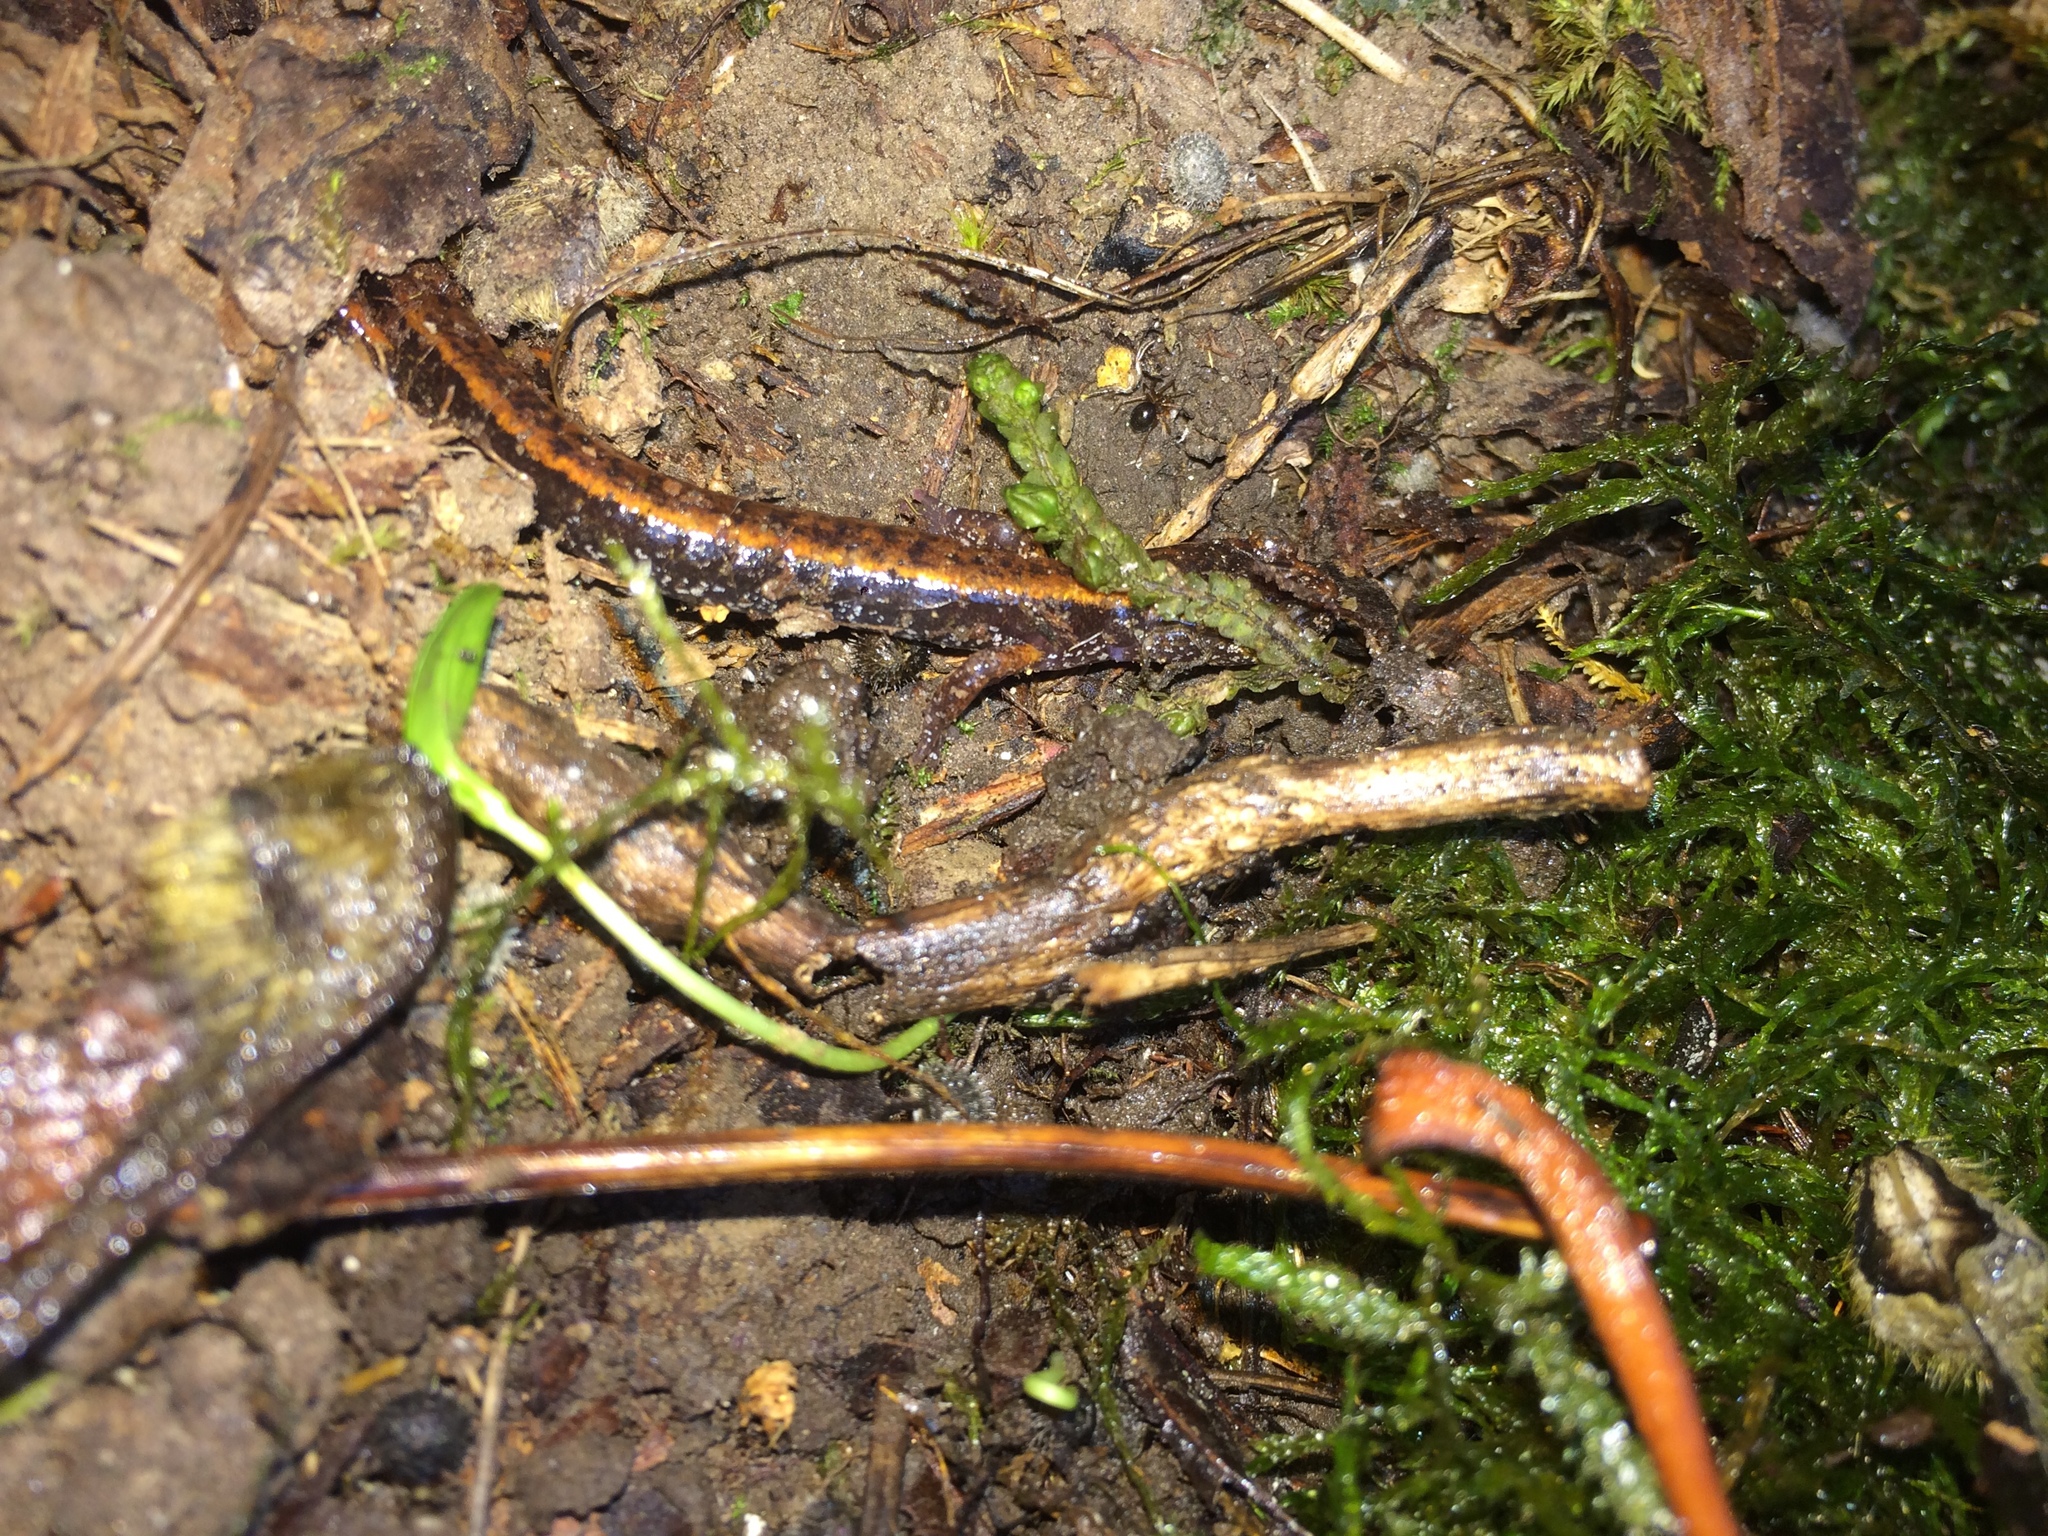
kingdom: Animalia
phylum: Chordata
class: Amphibia
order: Caudata
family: Plethodontidae
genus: Plethodon
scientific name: Plethodon vehiculum
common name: Western red-backed salamander
